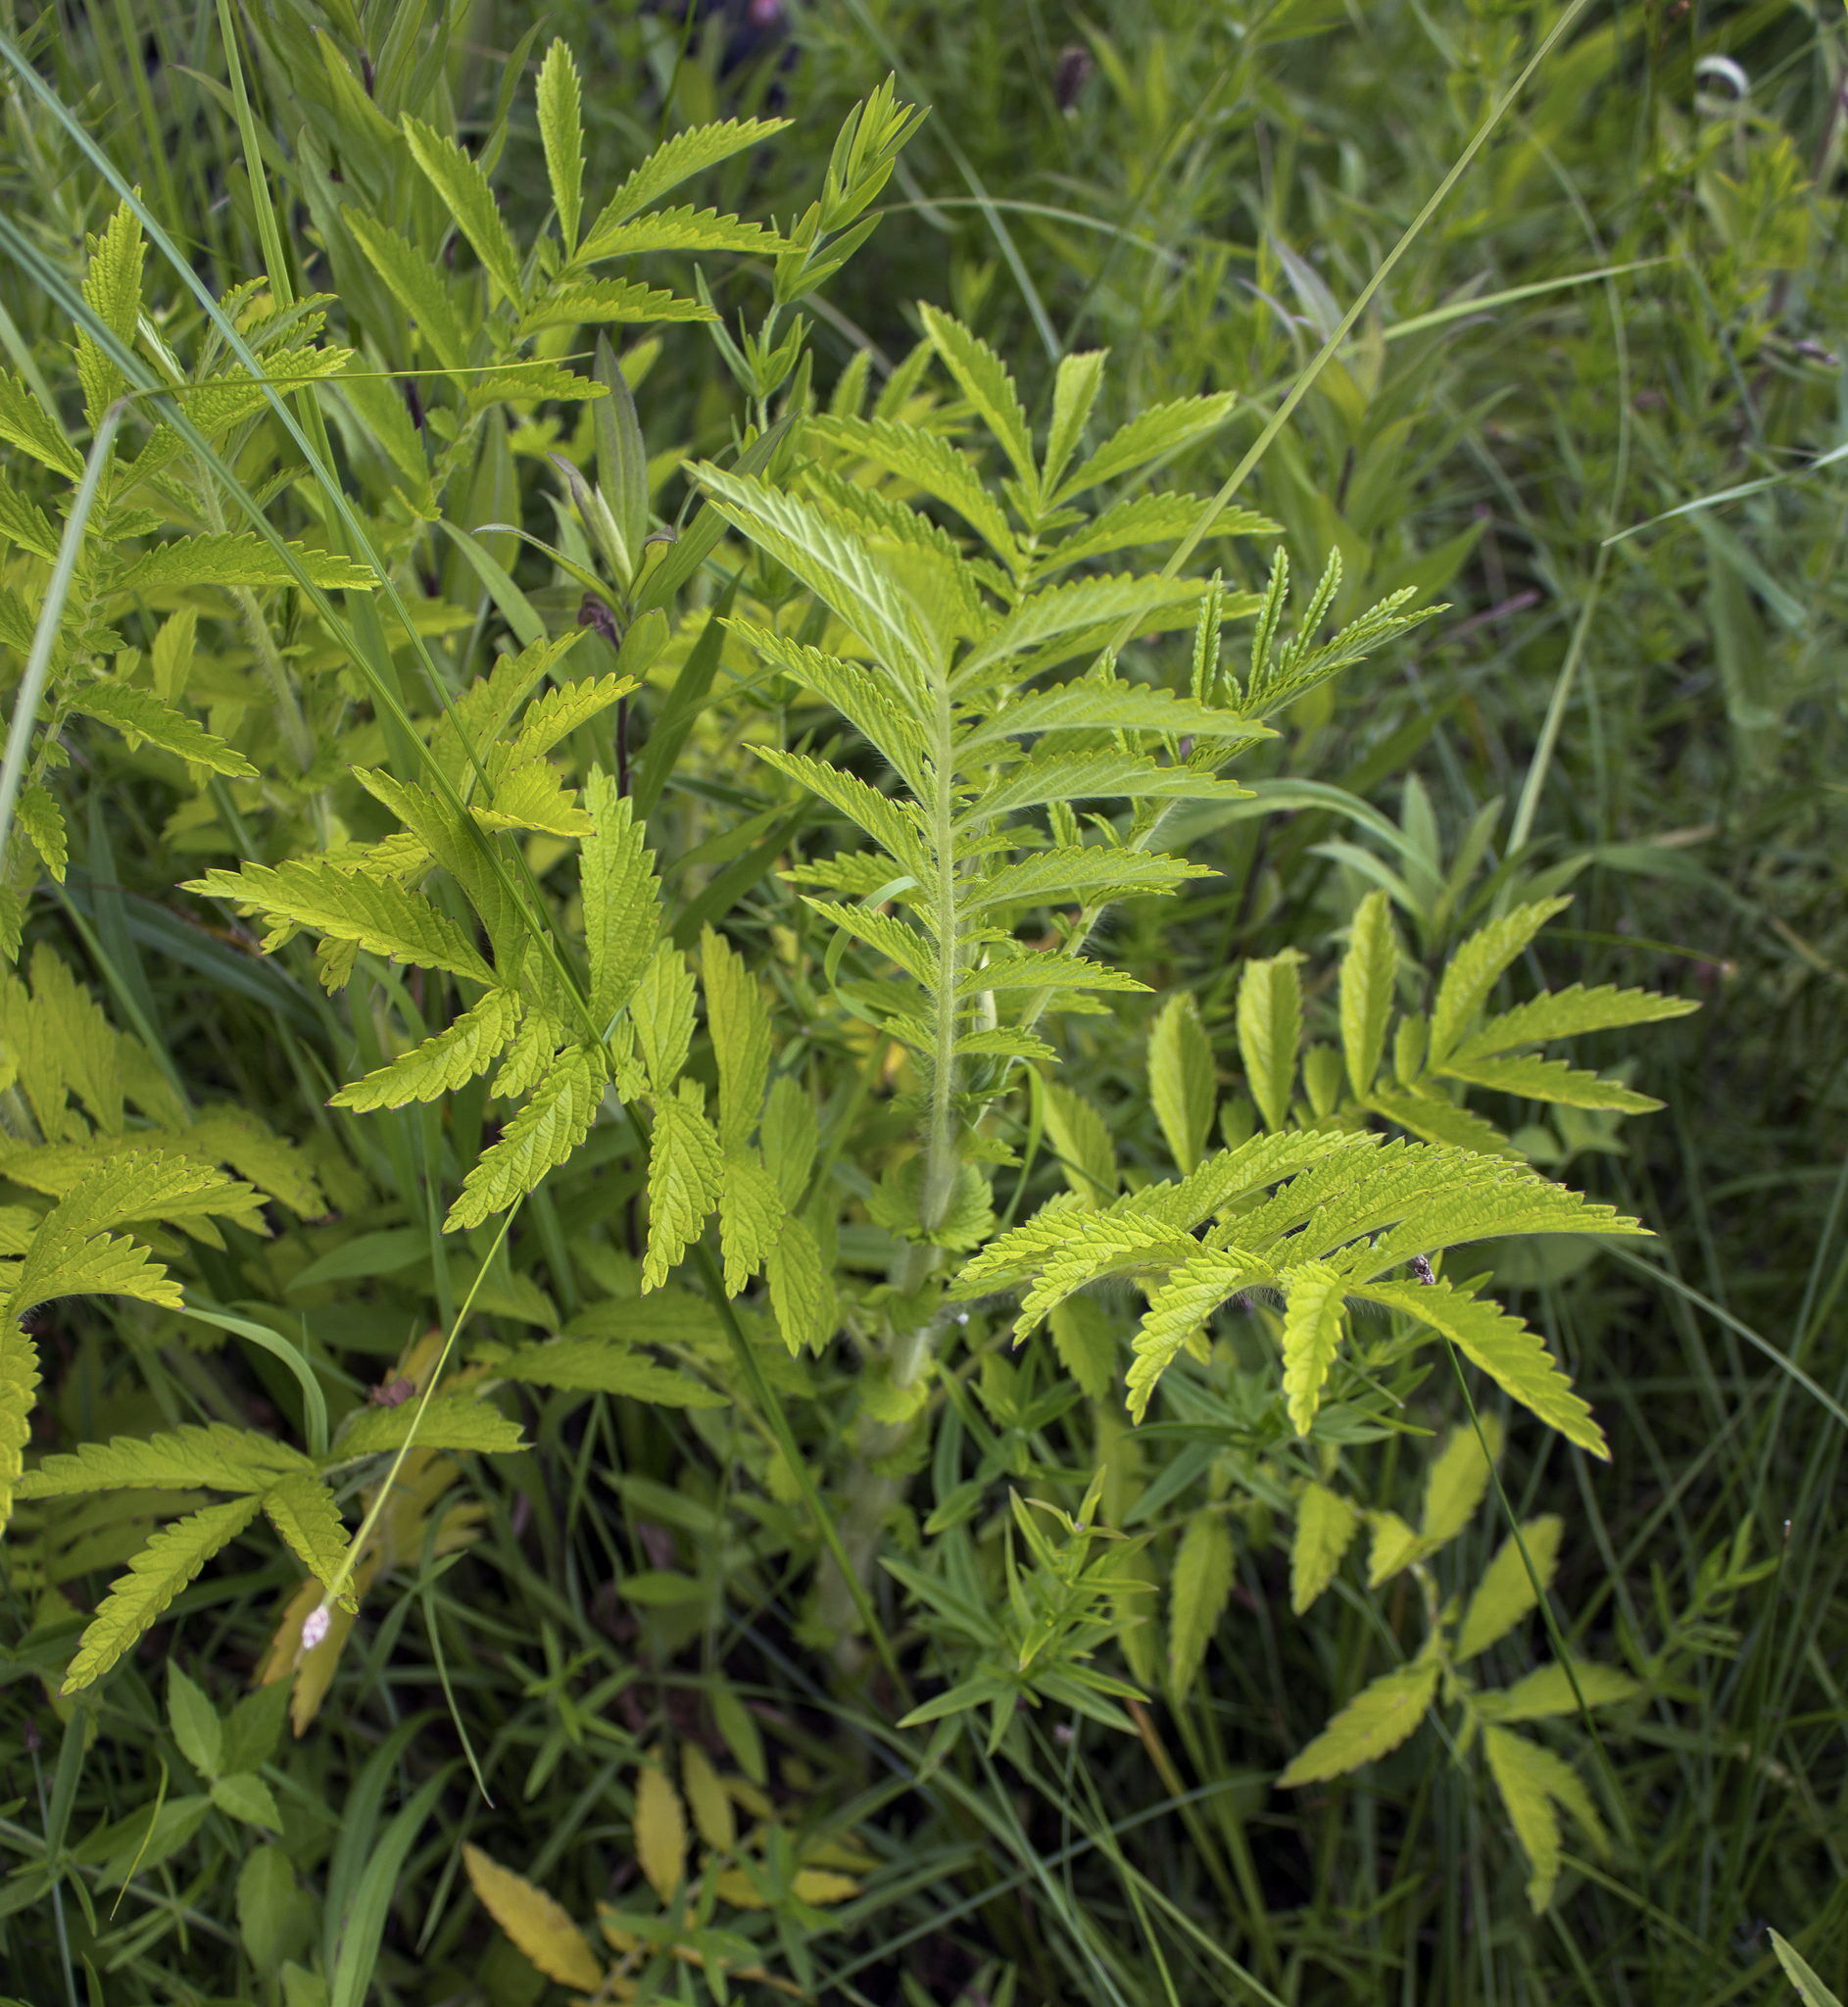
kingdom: Plantae
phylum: Tracheophyta
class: Magnoliopsida
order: Rosales
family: Rosaceae
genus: Agrimonia
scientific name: Agrimonia parviflora
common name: Harvest-lice
